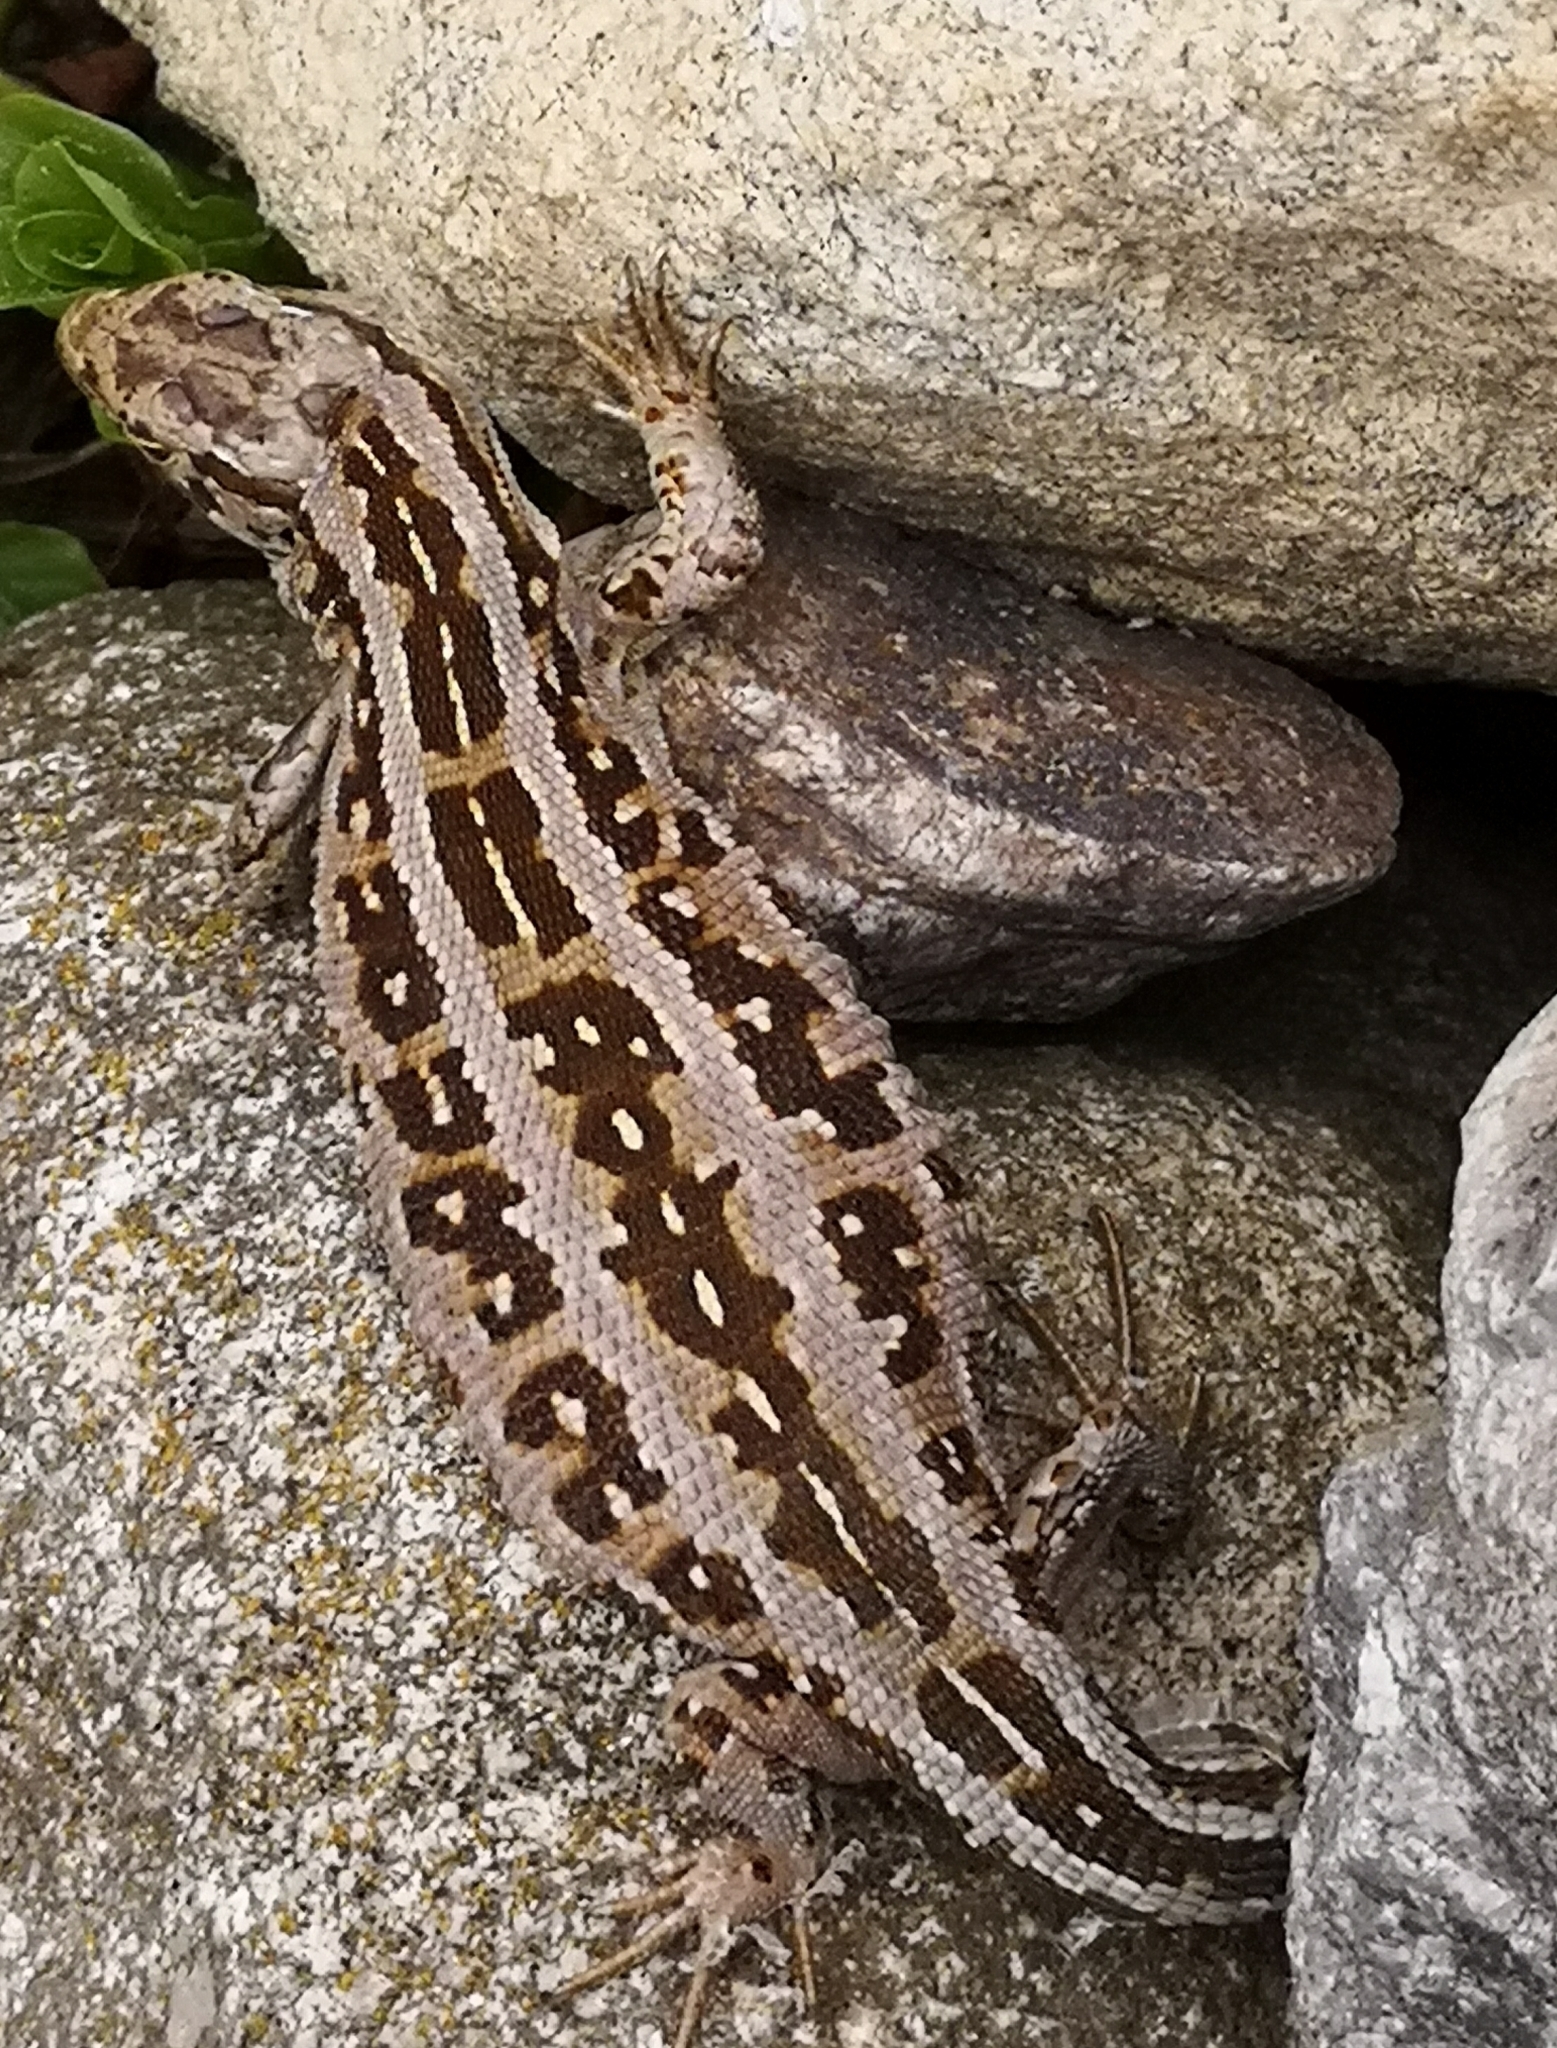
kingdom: Animalia
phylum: Chordata
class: Squamata
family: Lacertidae
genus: Lacerta
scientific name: Lacerta agilis
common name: Sand lizard
